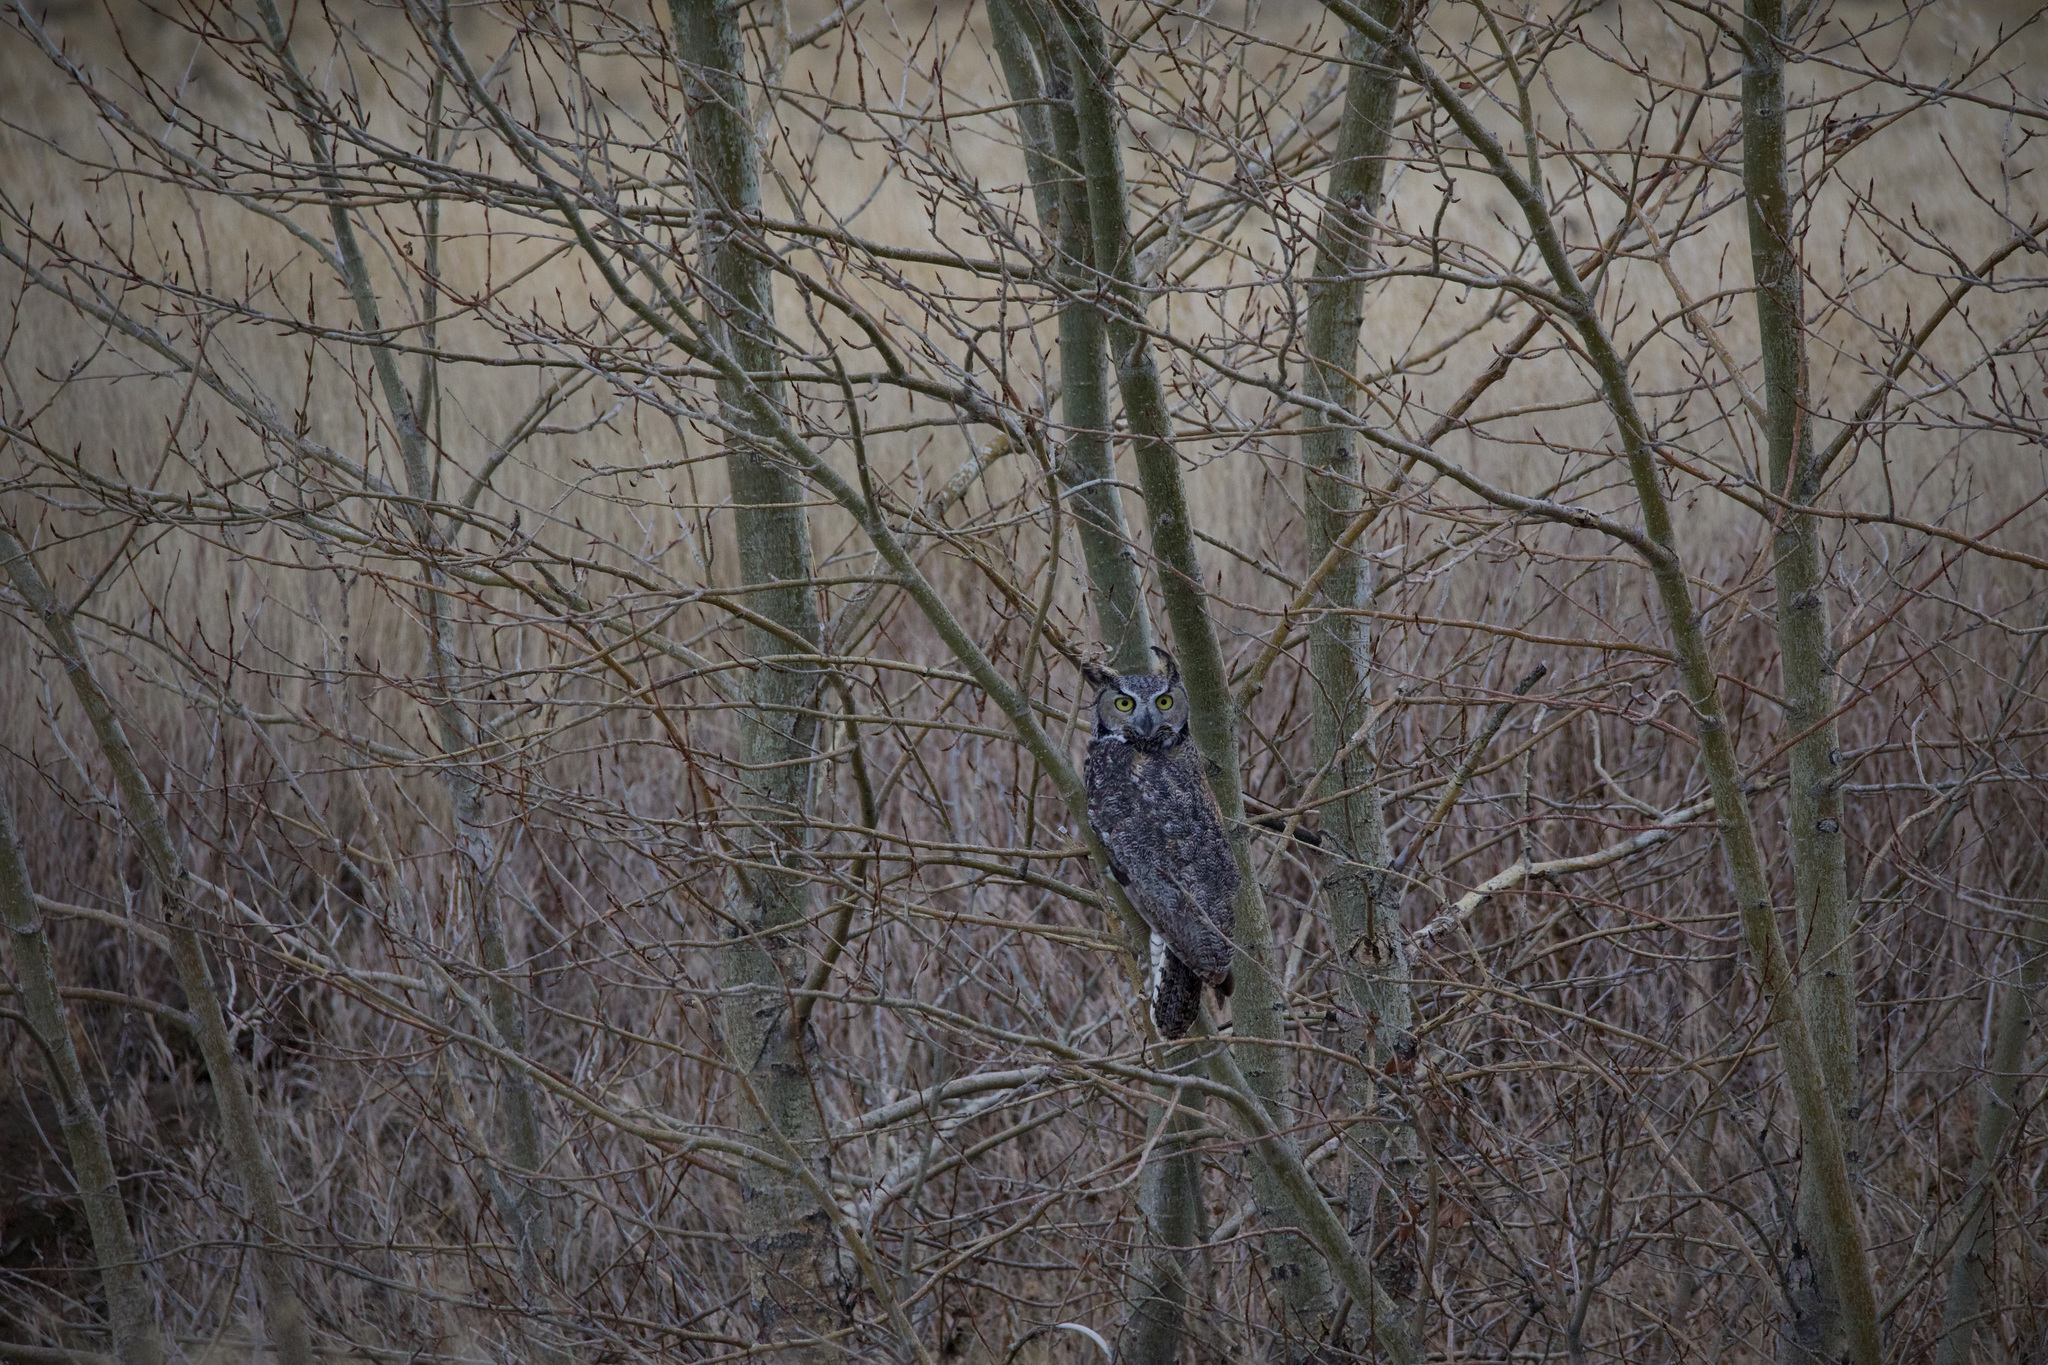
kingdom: Animalia
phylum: Chordata
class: Aves
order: Strigiformes
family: Strigidae
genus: Bubo
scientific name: Bubo virginianus
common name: Great horned owl
